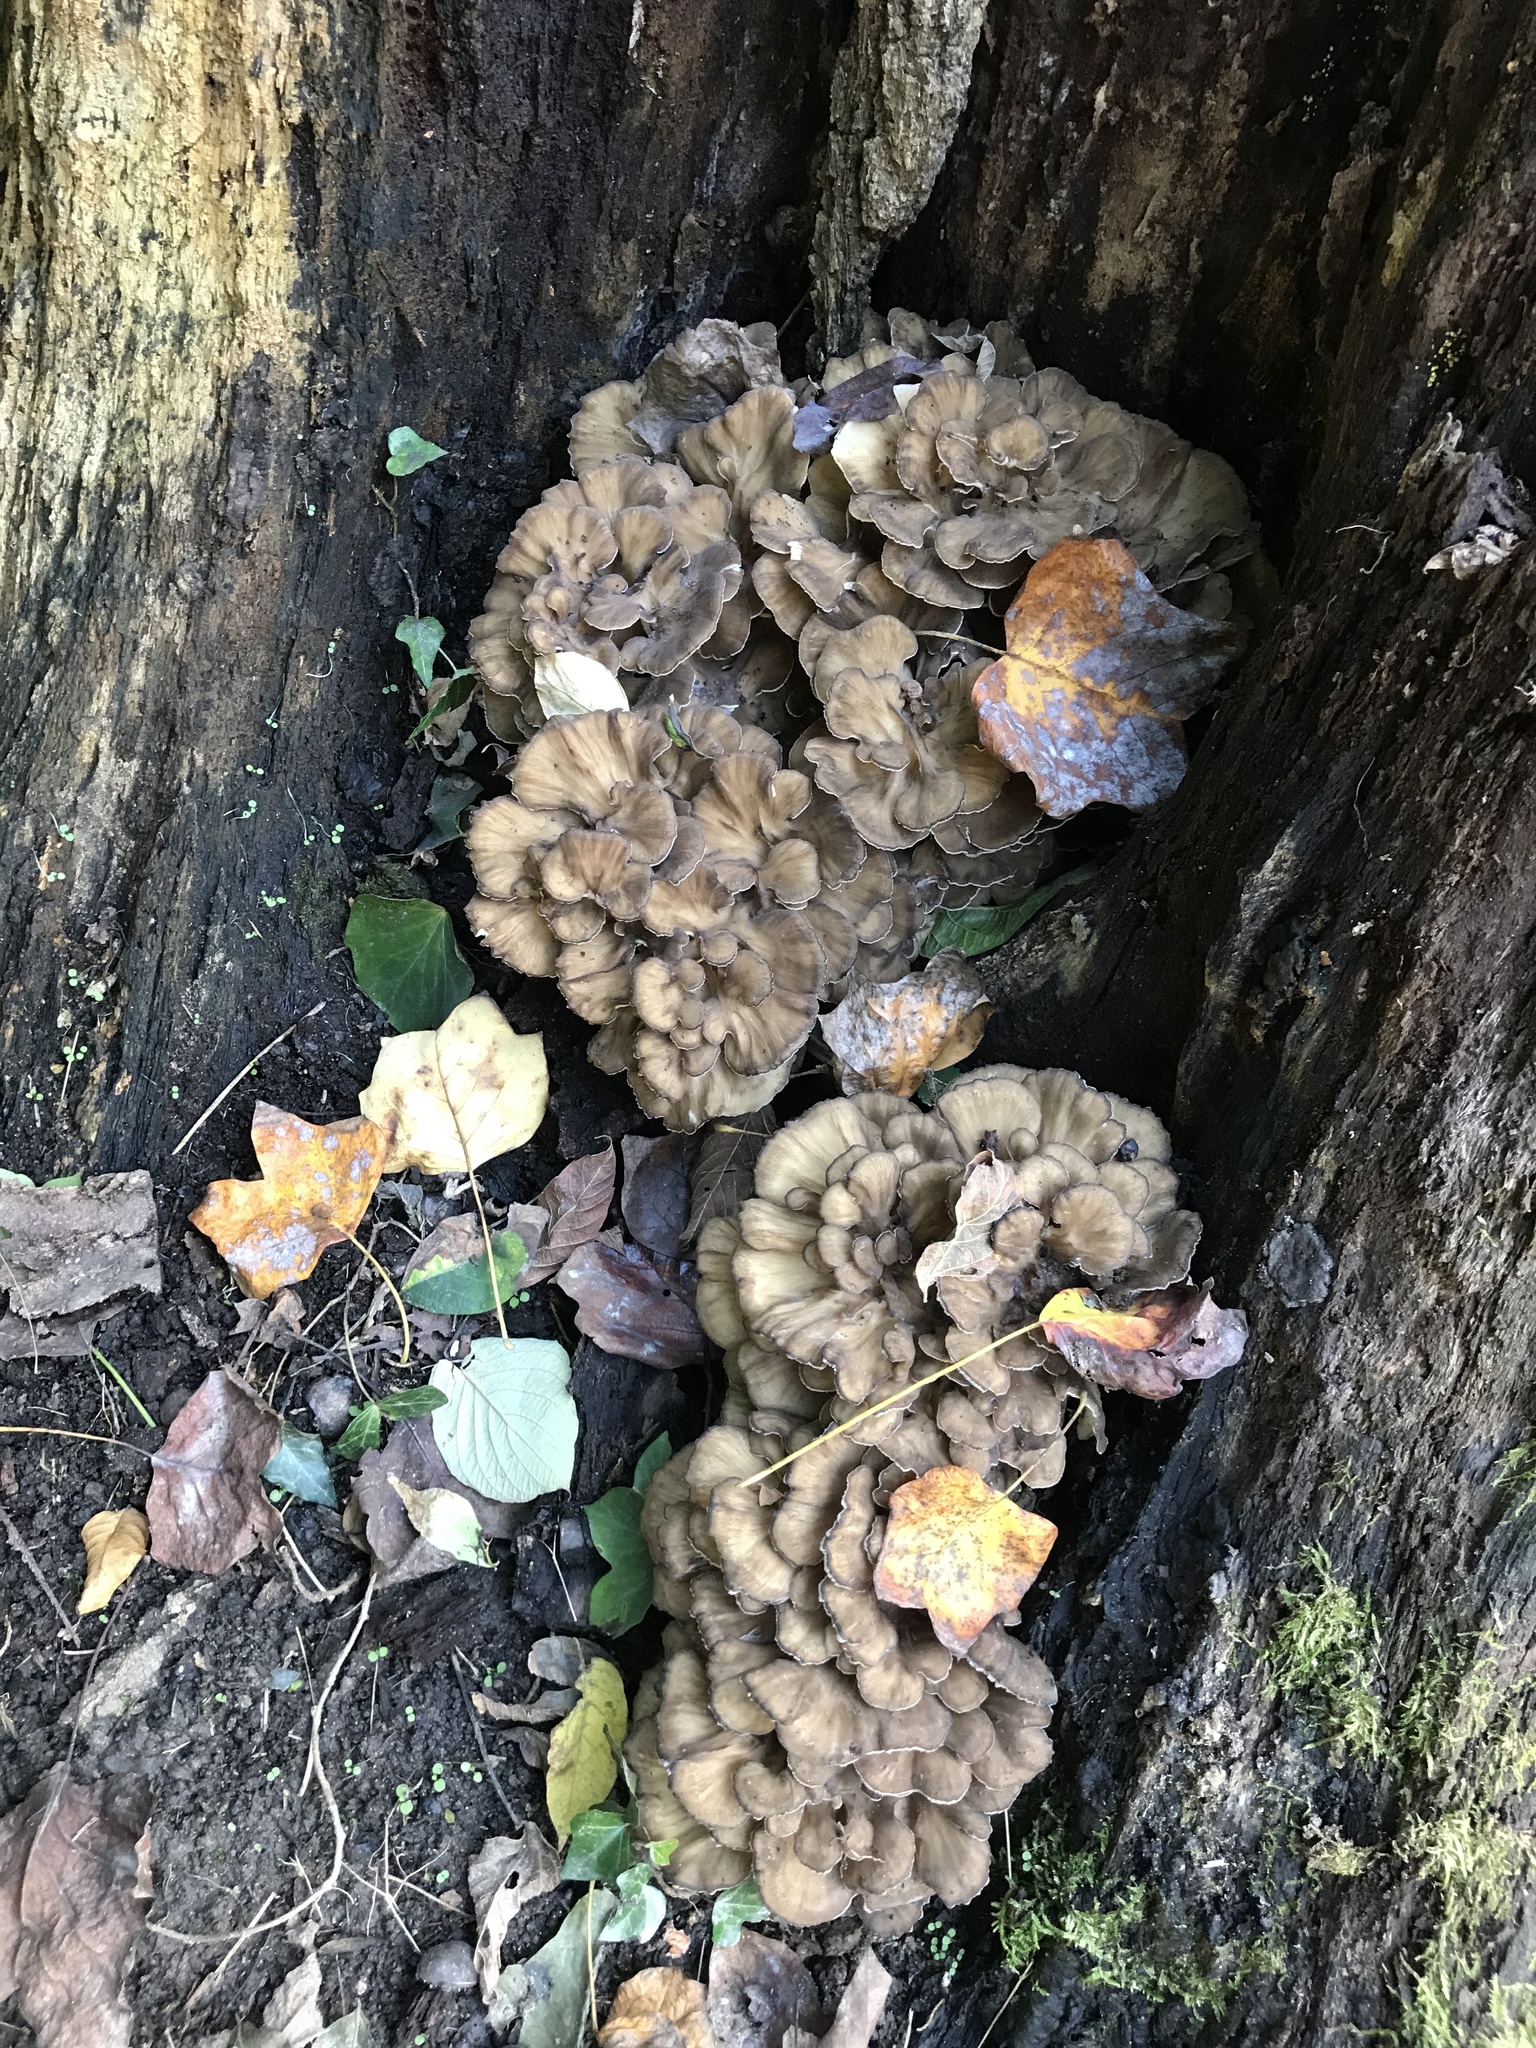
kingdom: Fungi
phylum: Basidiomycota
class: Agaricomycetes
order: Polyporales
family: Grifolaceae
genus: Grifola
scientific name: Grifola frondosa
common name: Hen of the woods
